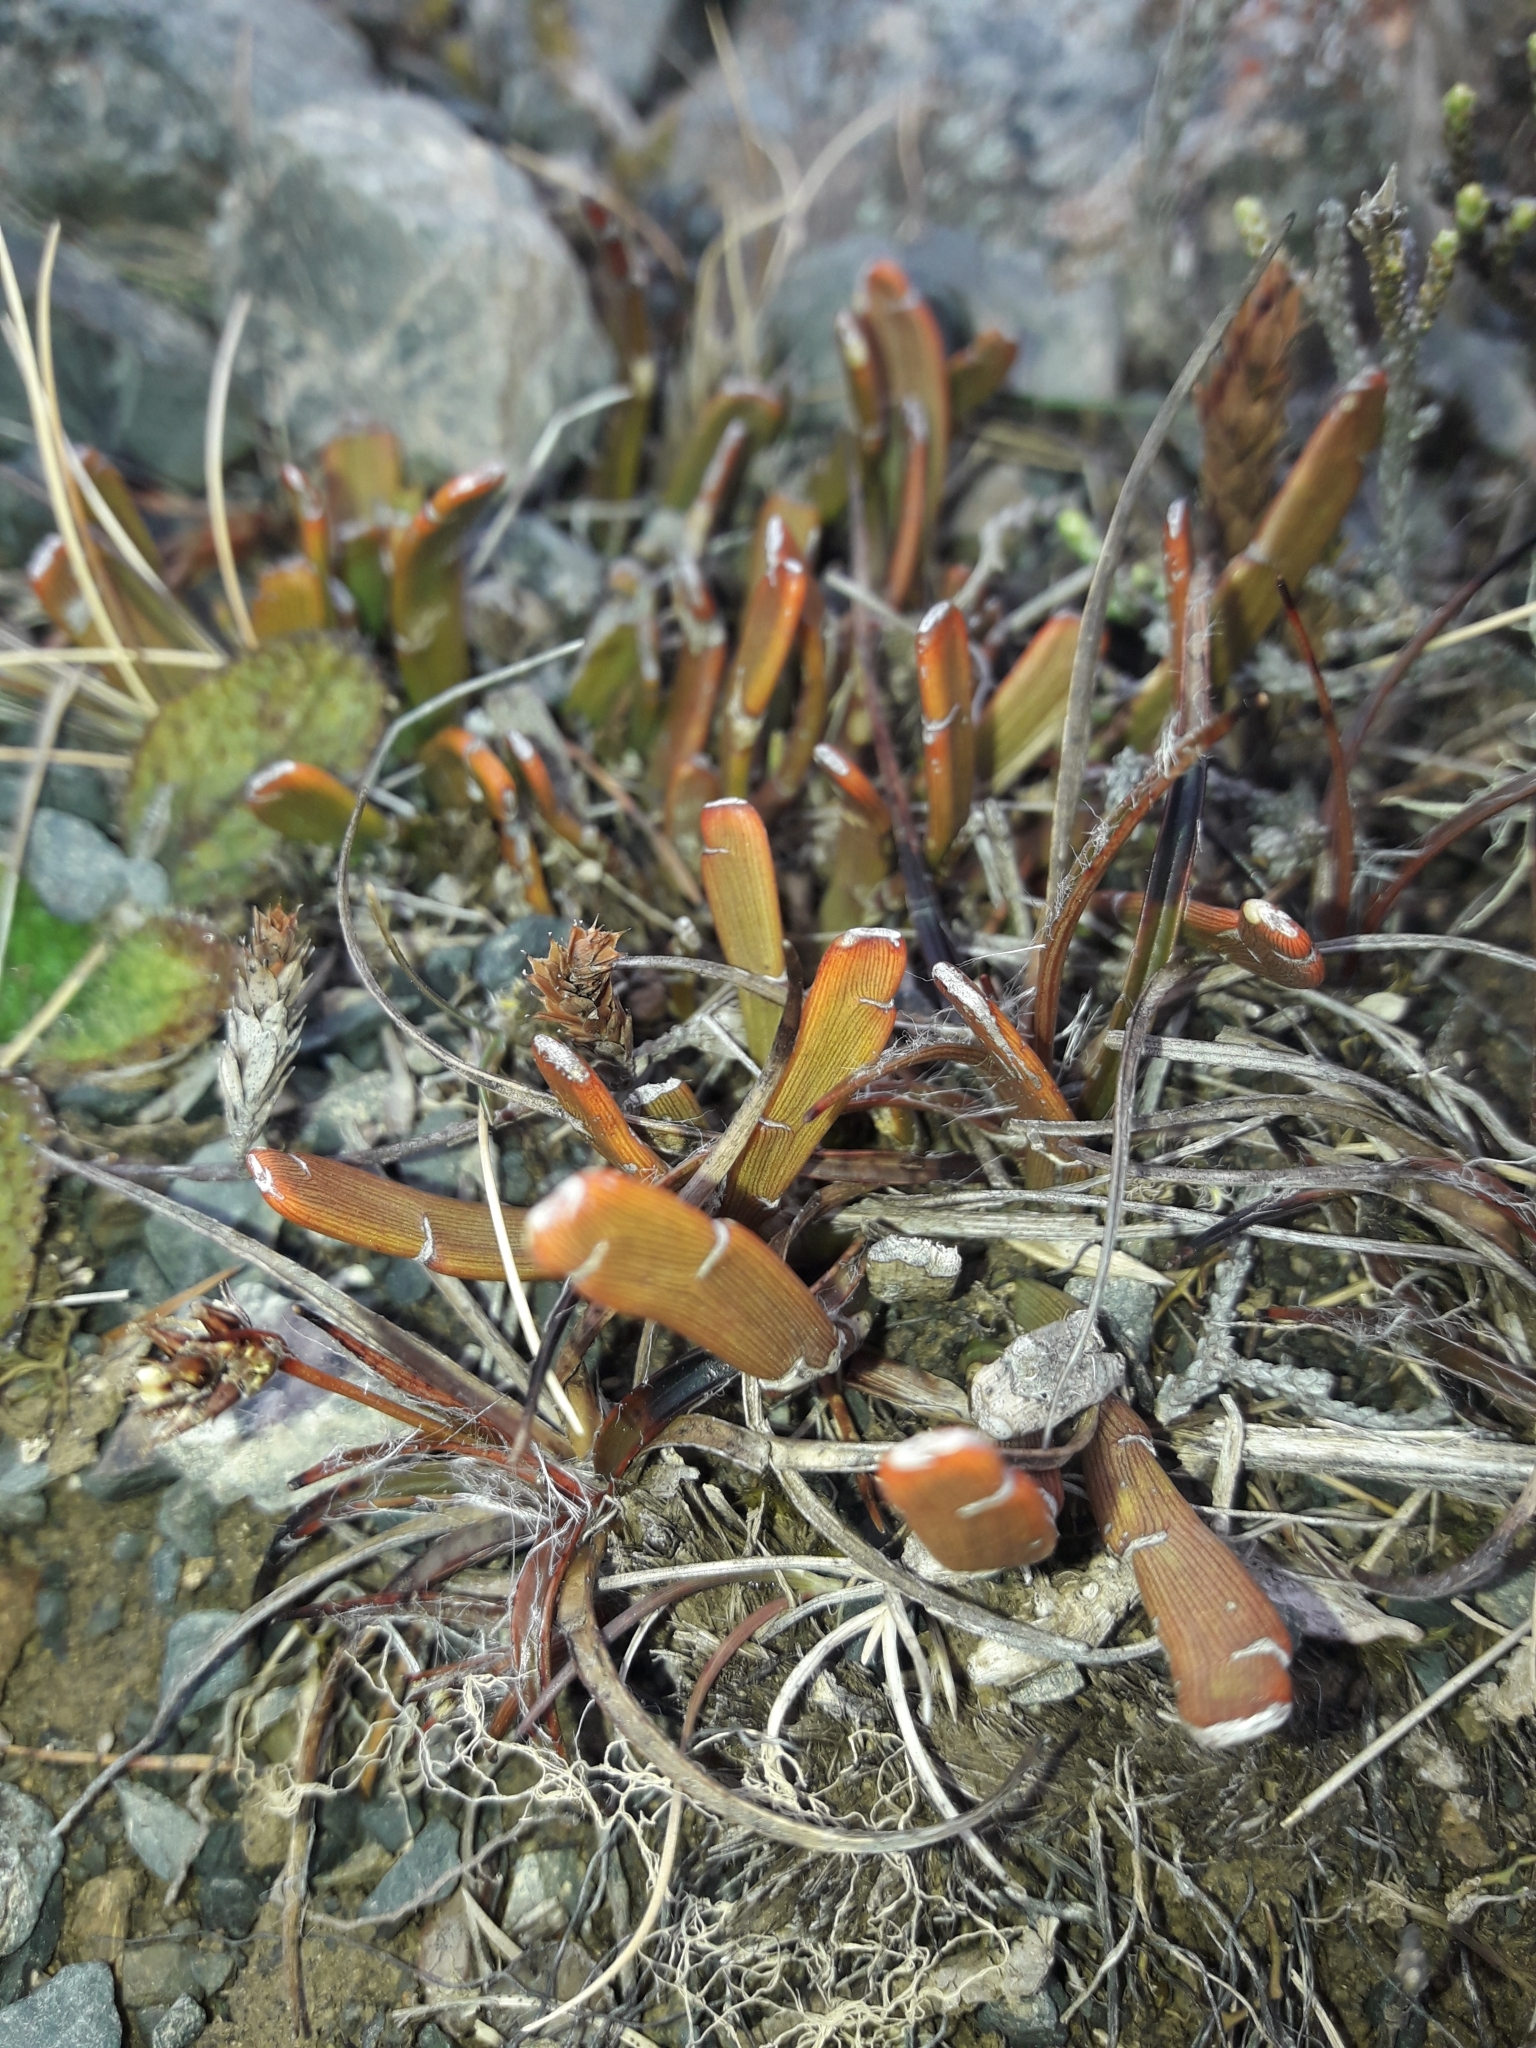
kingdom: Plantae
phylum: Tracheophyta
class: Magnoliopsida
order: Fabales
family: Fabaceae
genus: Carmichaelia
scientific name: Carmichaelia monroi
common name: Stout dwarf broom
